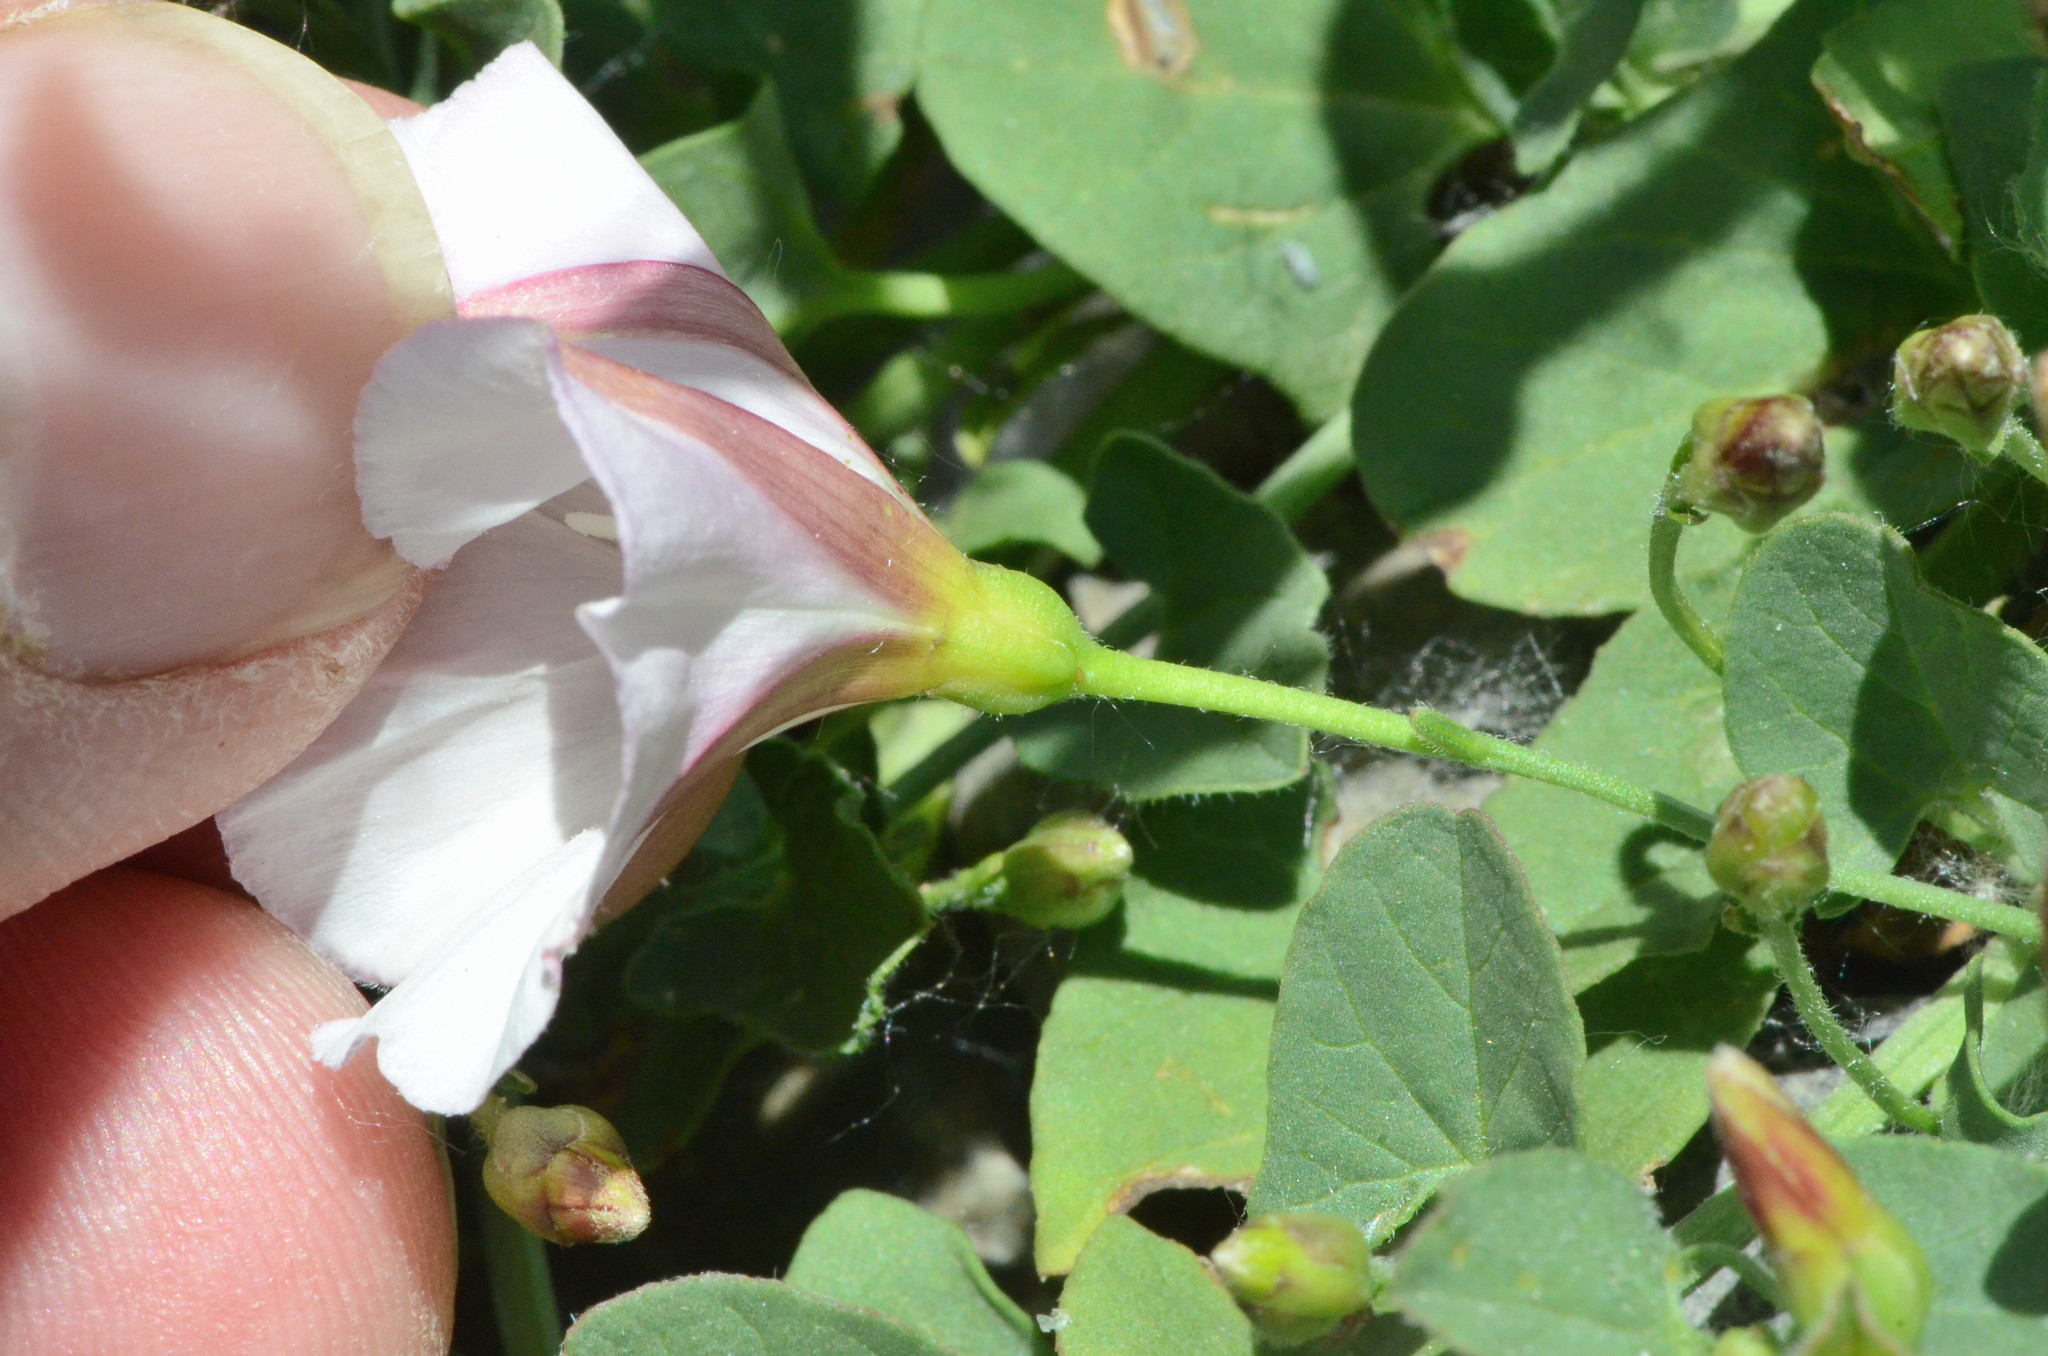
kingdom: Plantae
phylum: Tracheophyta
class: Magnoliopsida
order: Solanales
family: Convolvulaceae
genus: Convolvulus
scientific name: Convolvulus arvensis
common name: Field bindweed
